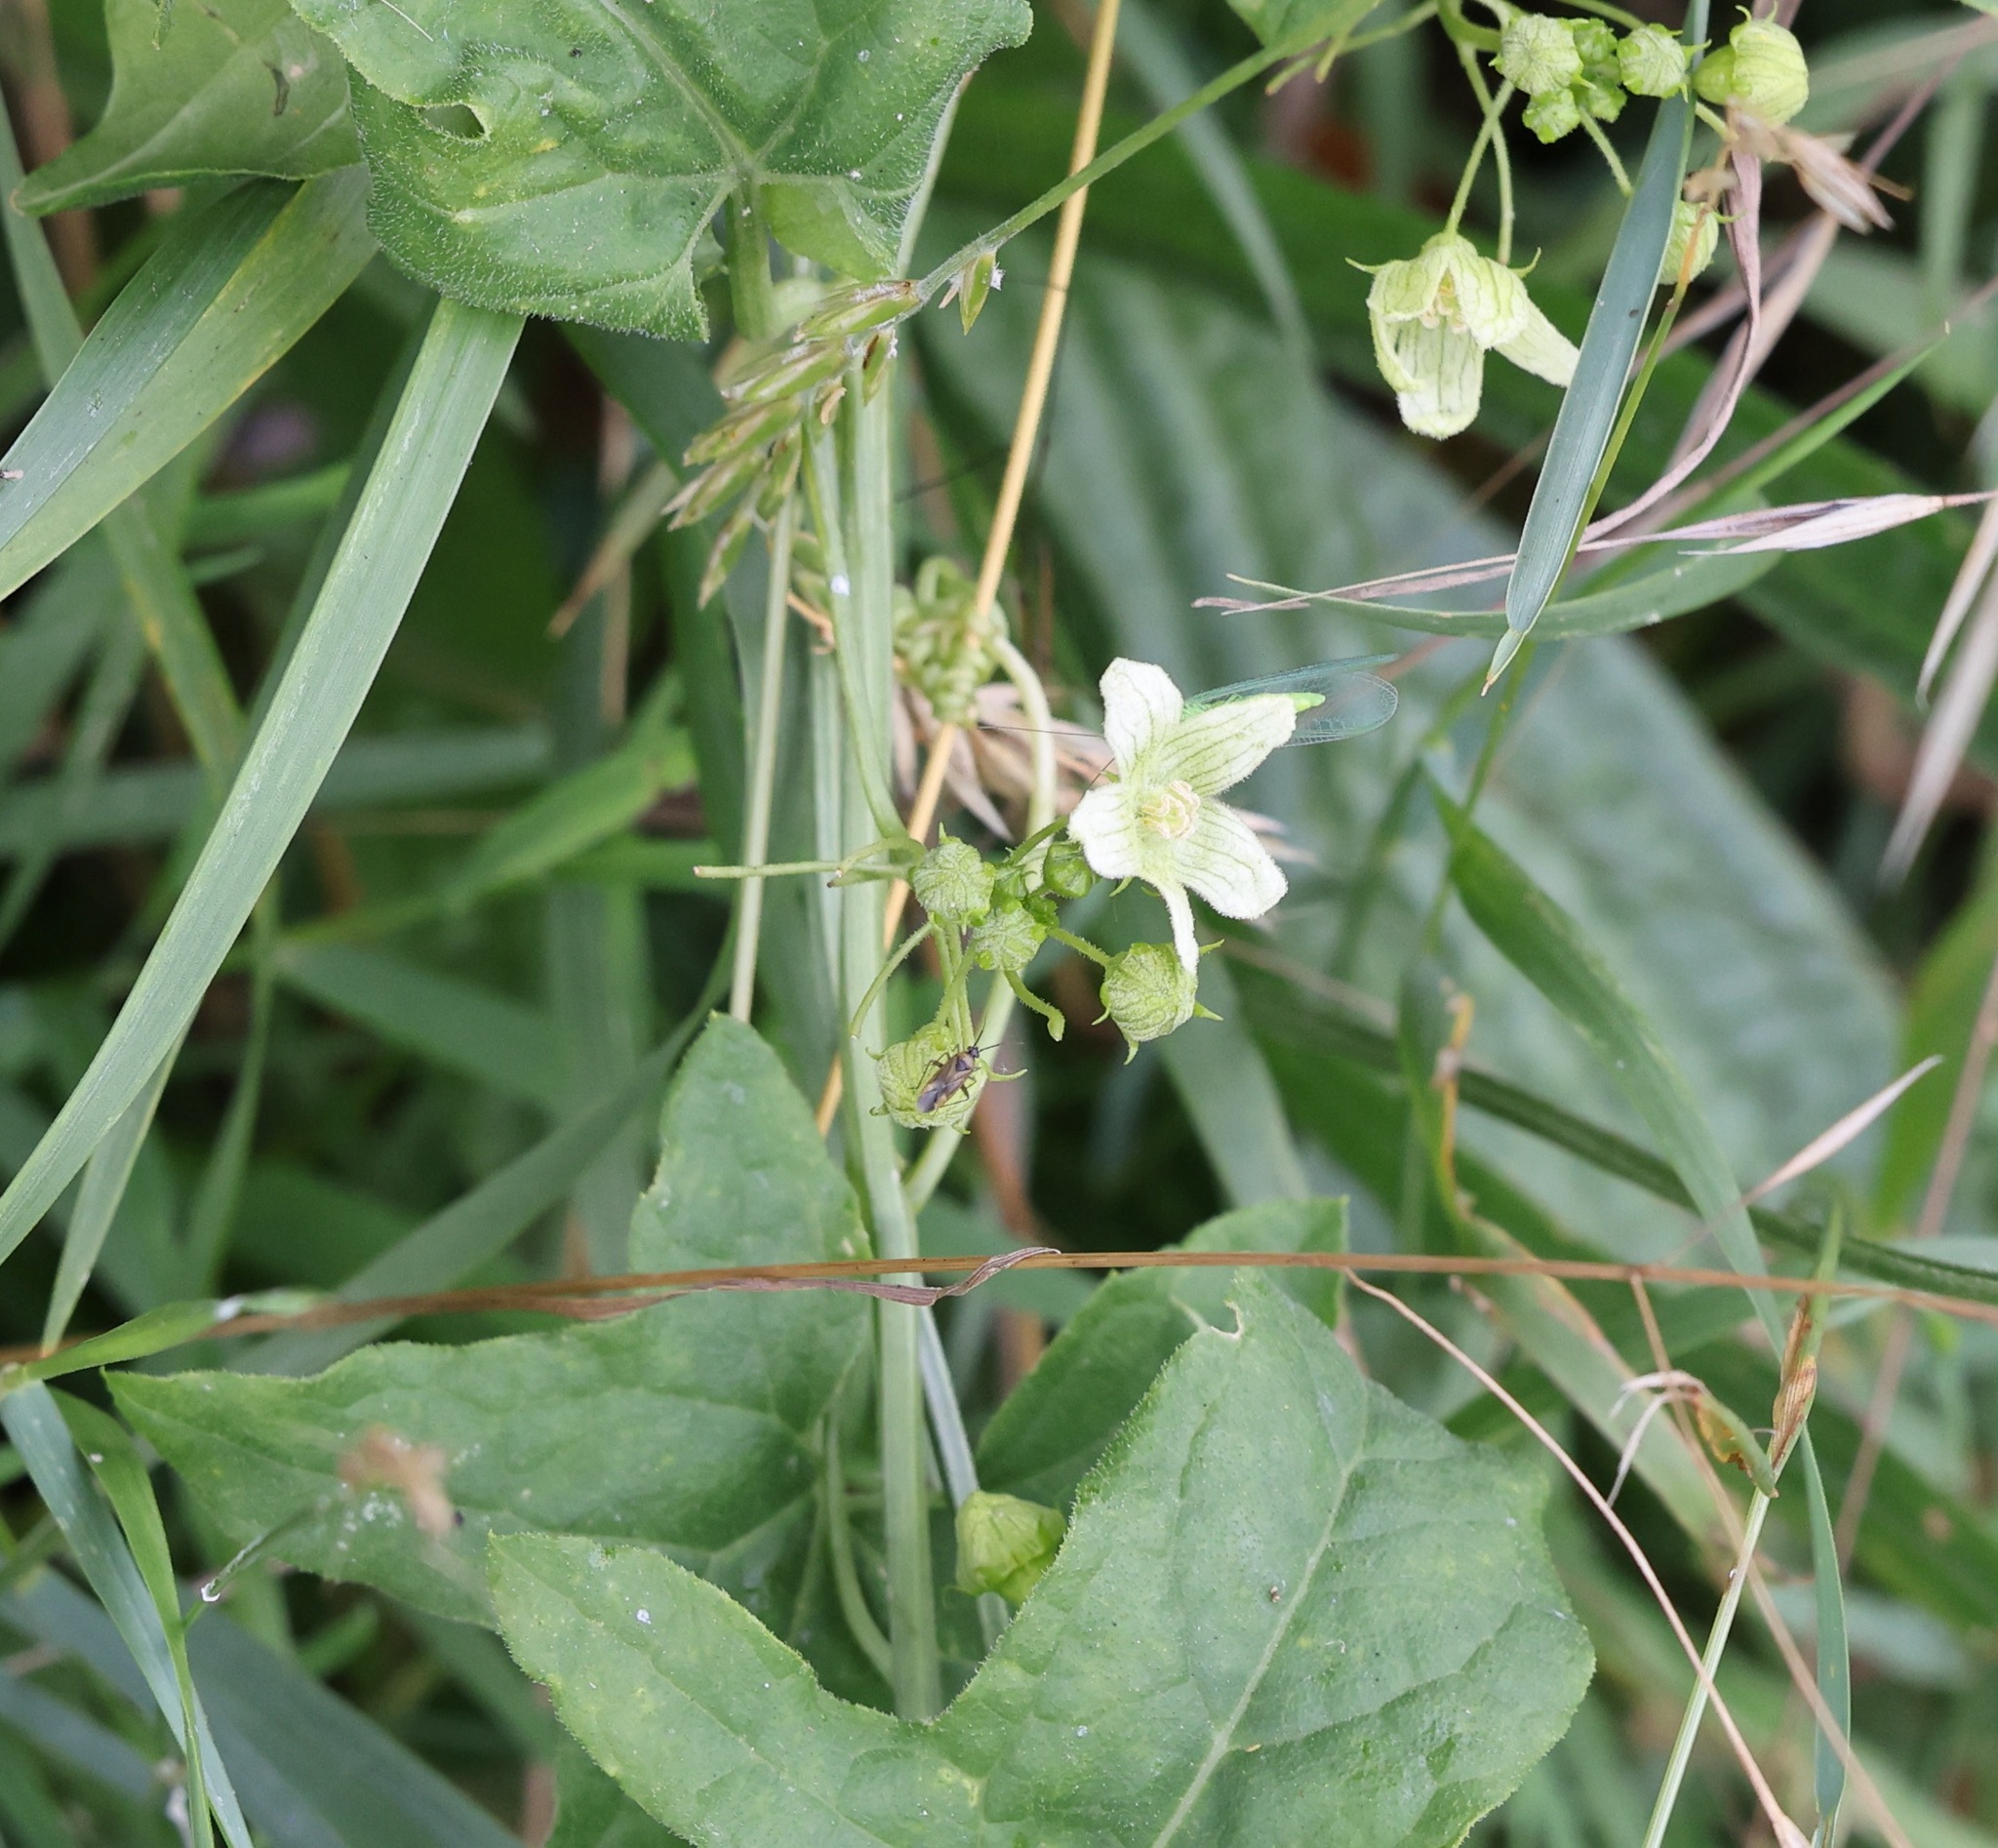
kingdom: Plantae
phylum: Tracheophyta
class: Magnoliopsida
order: Cucurbitales
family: Cucurbitaceae
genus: Bryonia
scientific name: Bryonia cretica
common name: Cretan bryony
